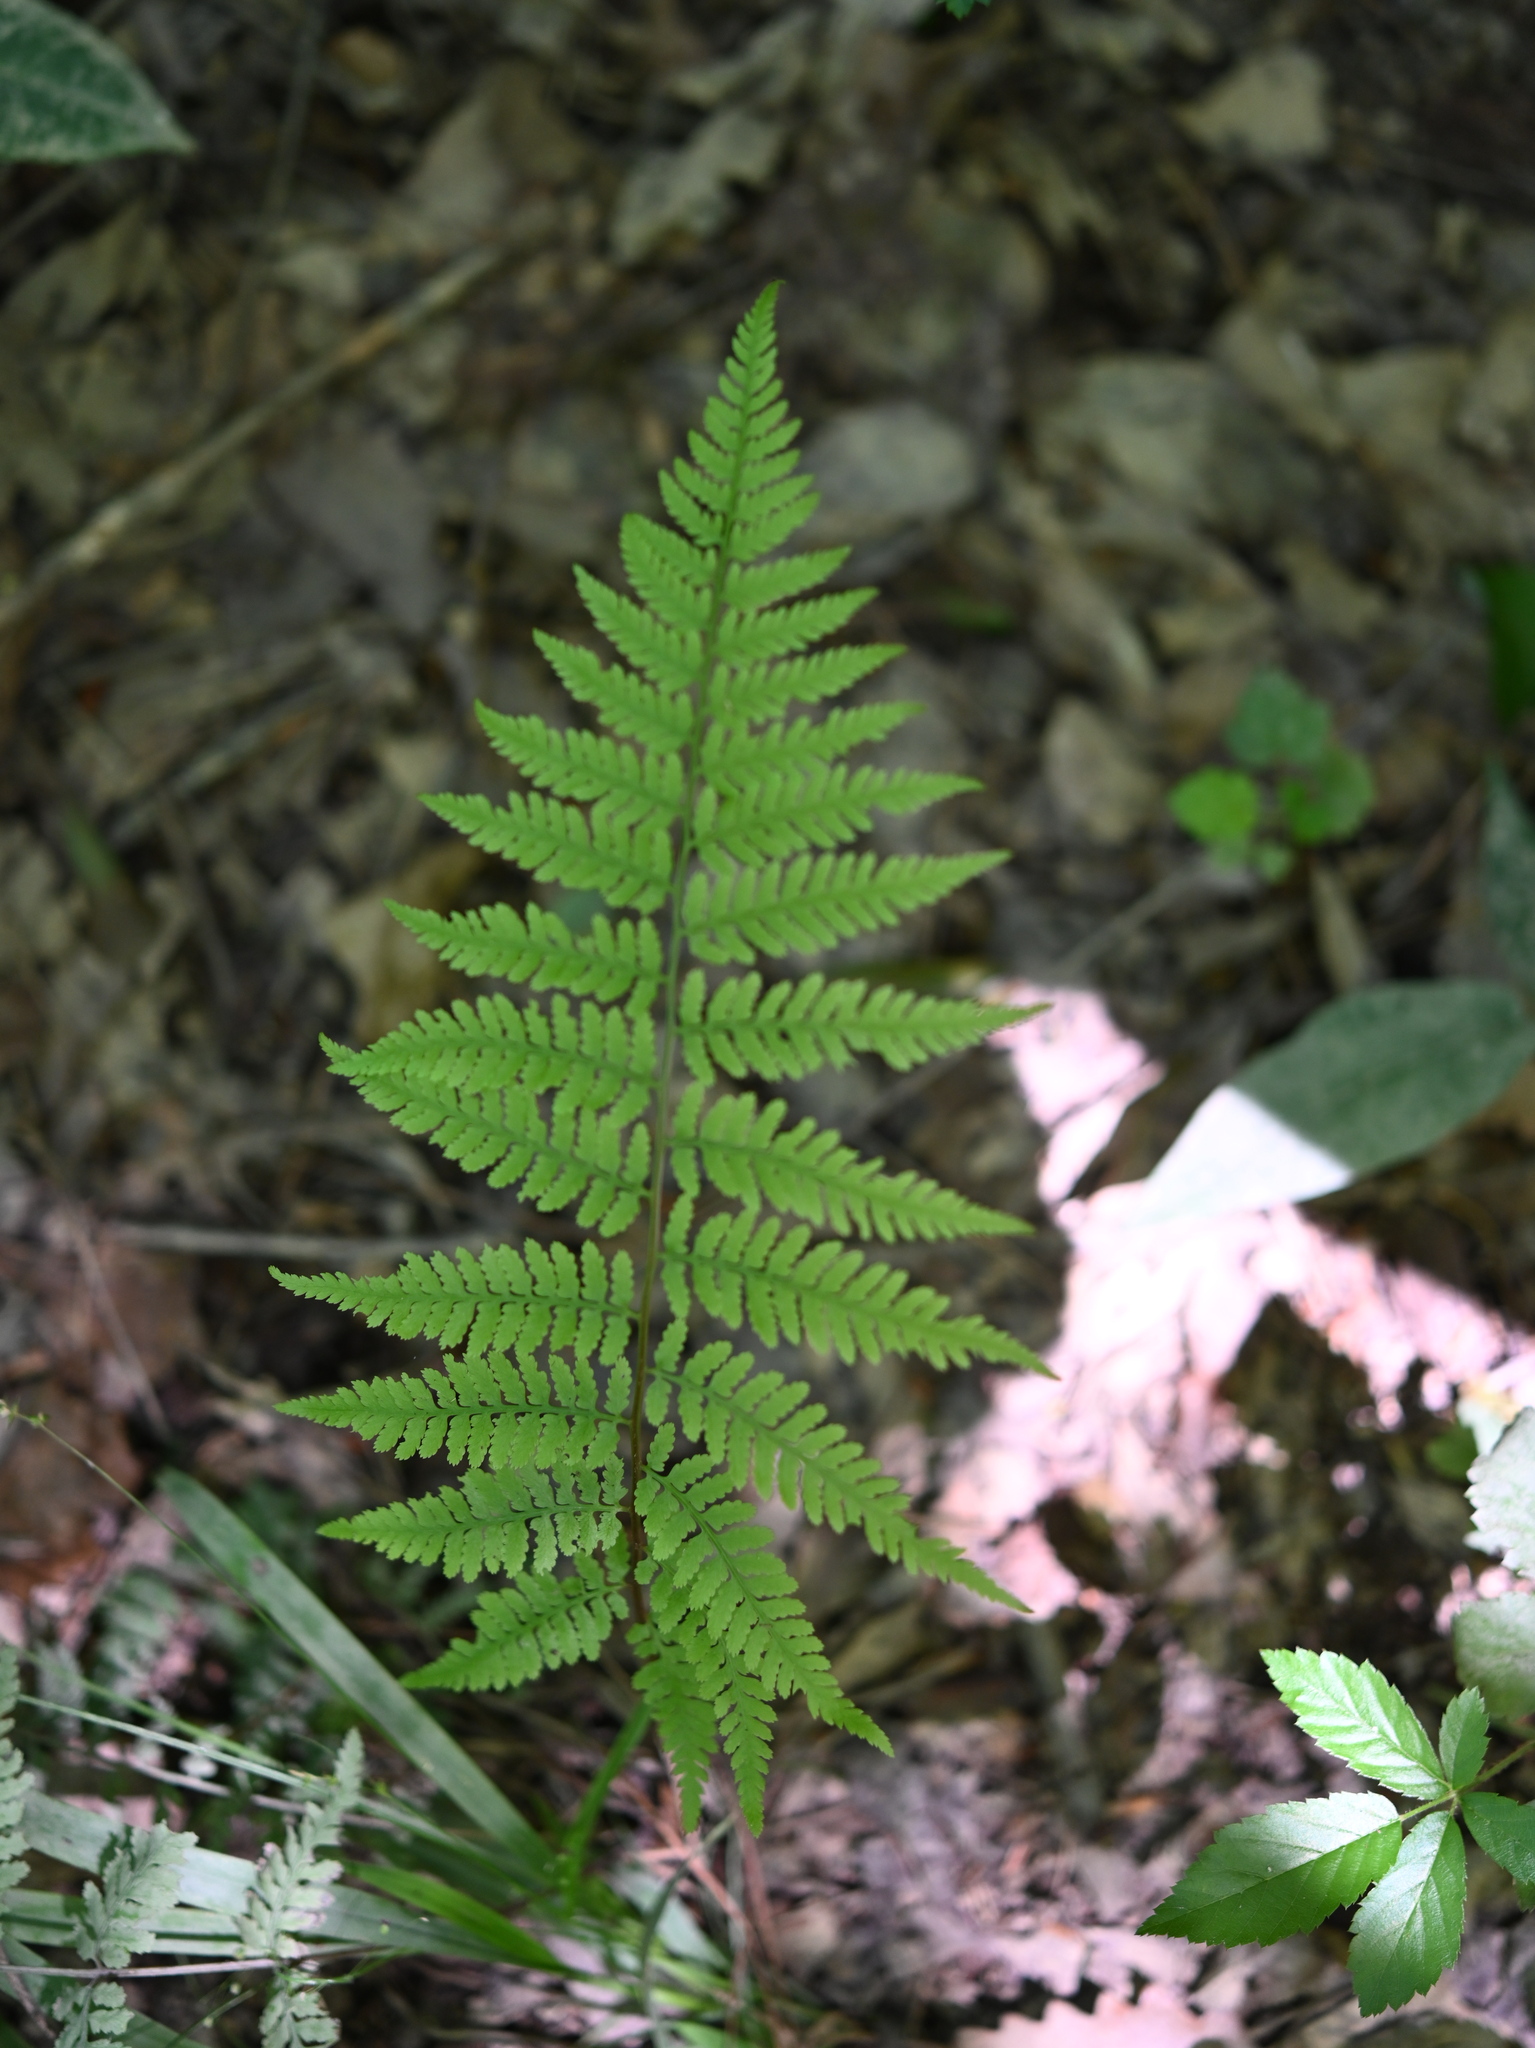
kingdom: Plantae
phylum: Tracheophyta
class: Polypodiopsida
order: Polypodiales
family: Athyriaceae
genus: Athyrium
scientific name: Athyrium asplenioides
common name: Southern lady fern
